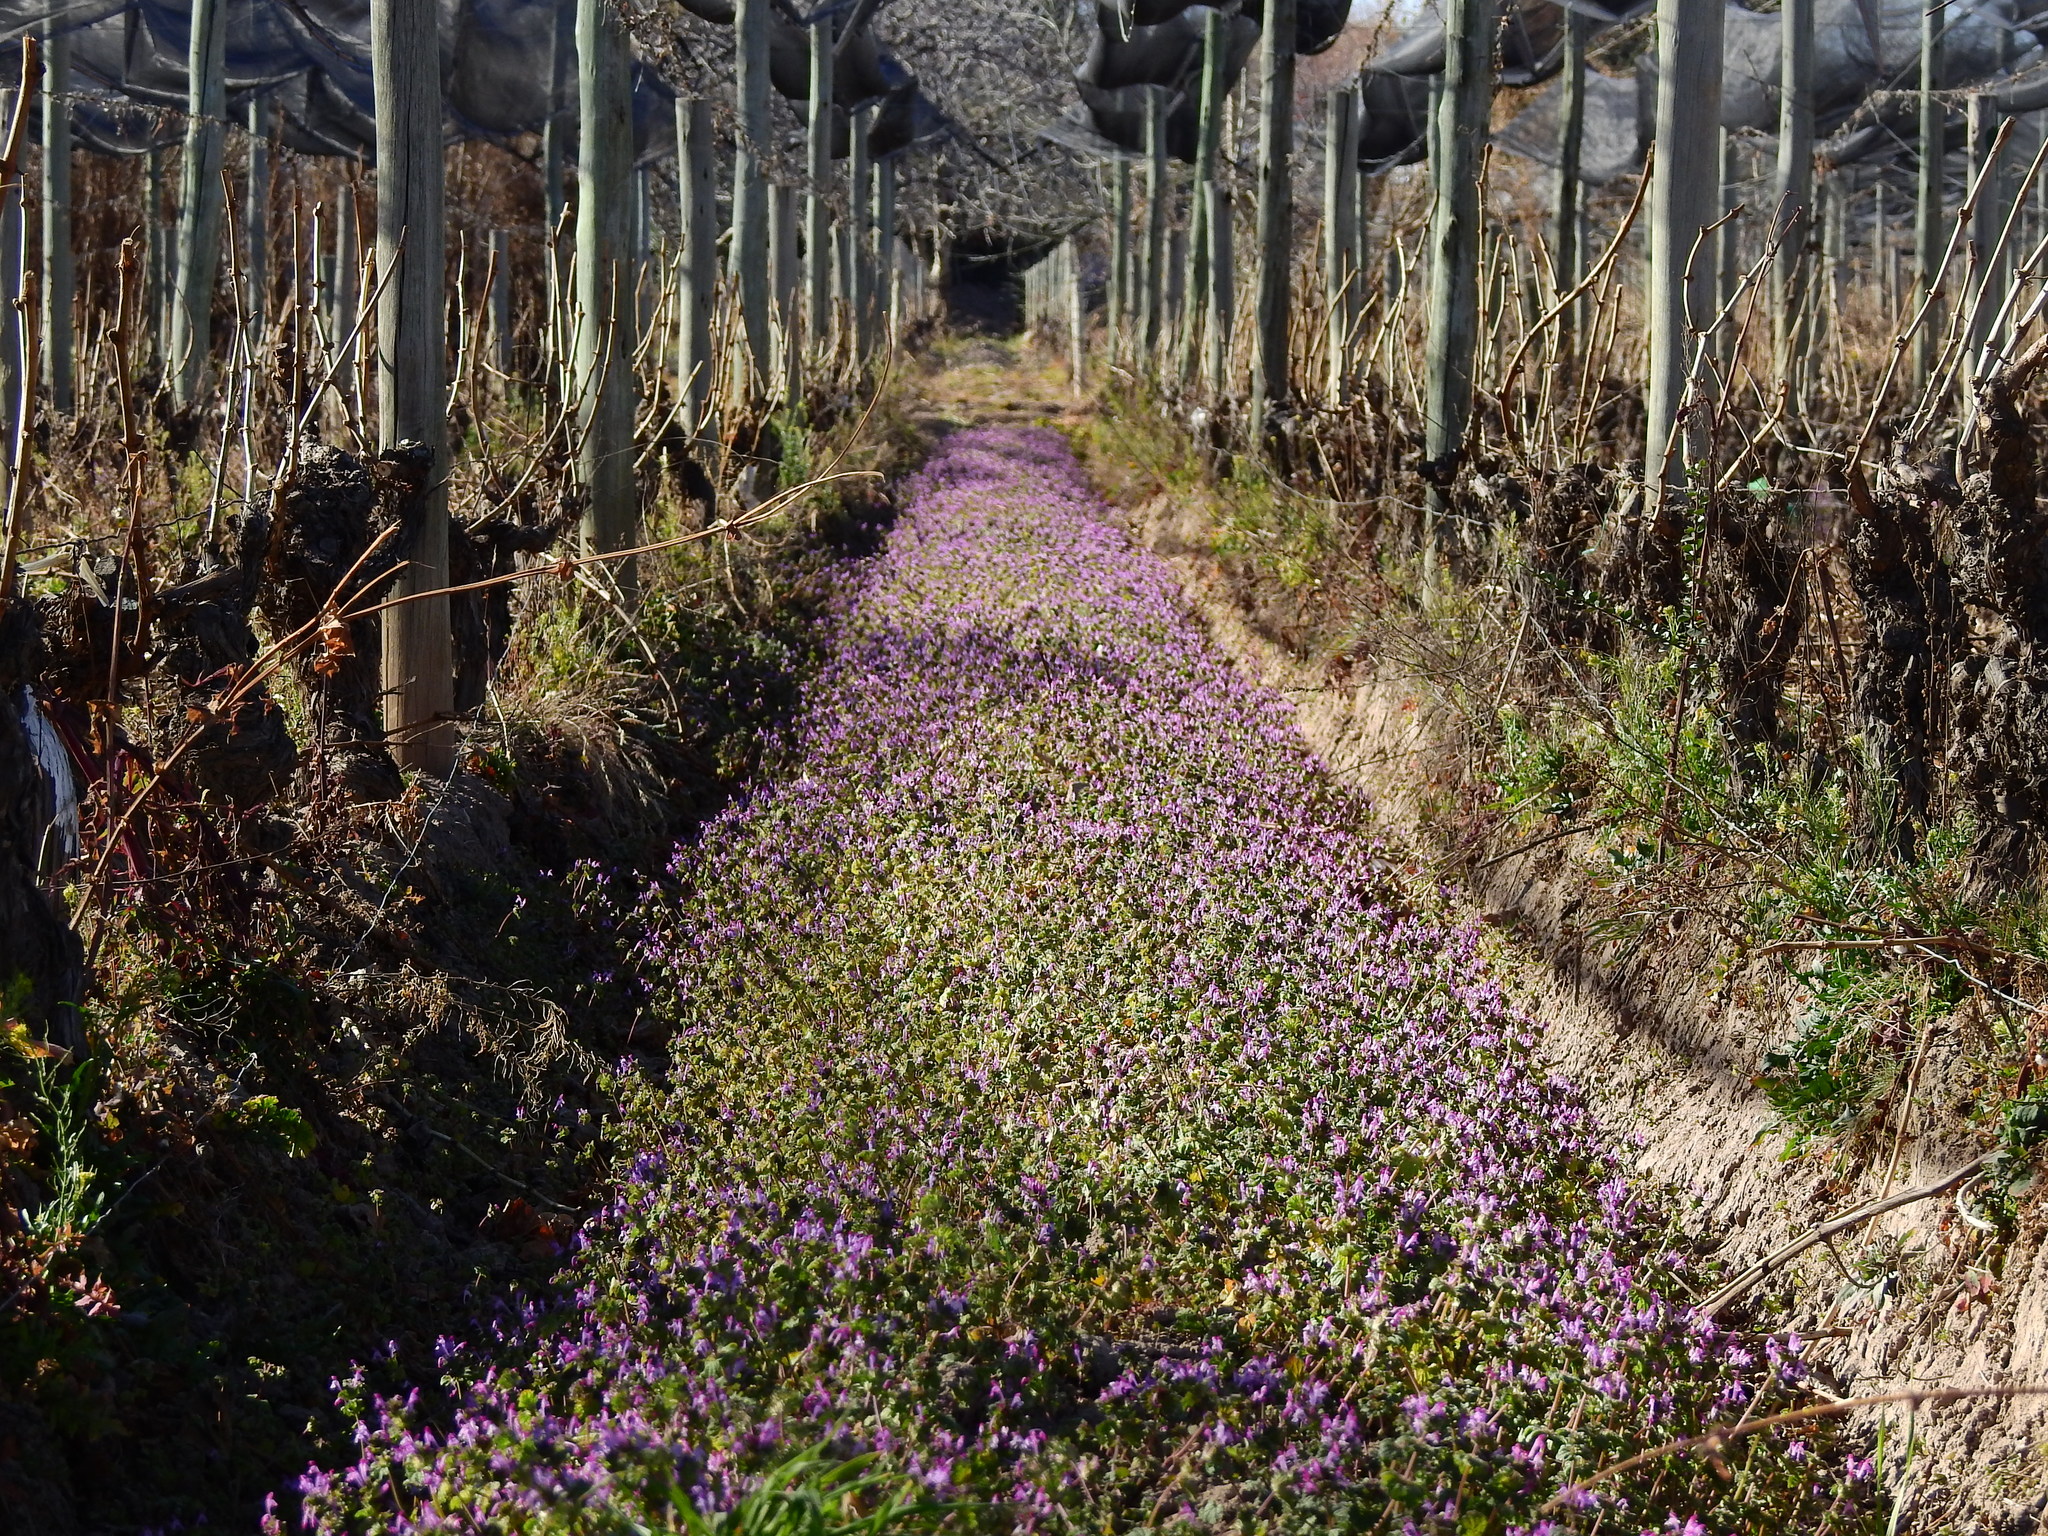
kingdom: Plantae
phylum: Tracheophyta
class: Magnoliopsida
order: Lamiales
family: Lamiaceae
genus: Lamium
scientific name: Lamium amplexicaule
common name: Henbit dead-nettle
